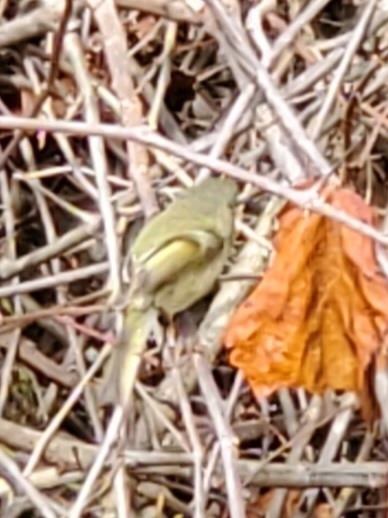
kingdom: Animalia
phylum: Chordata
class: Aves
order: Passeriformes
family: Regulidae
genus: Regulus
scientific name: Regulus calendula
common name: Ruby-crowned kinglet
